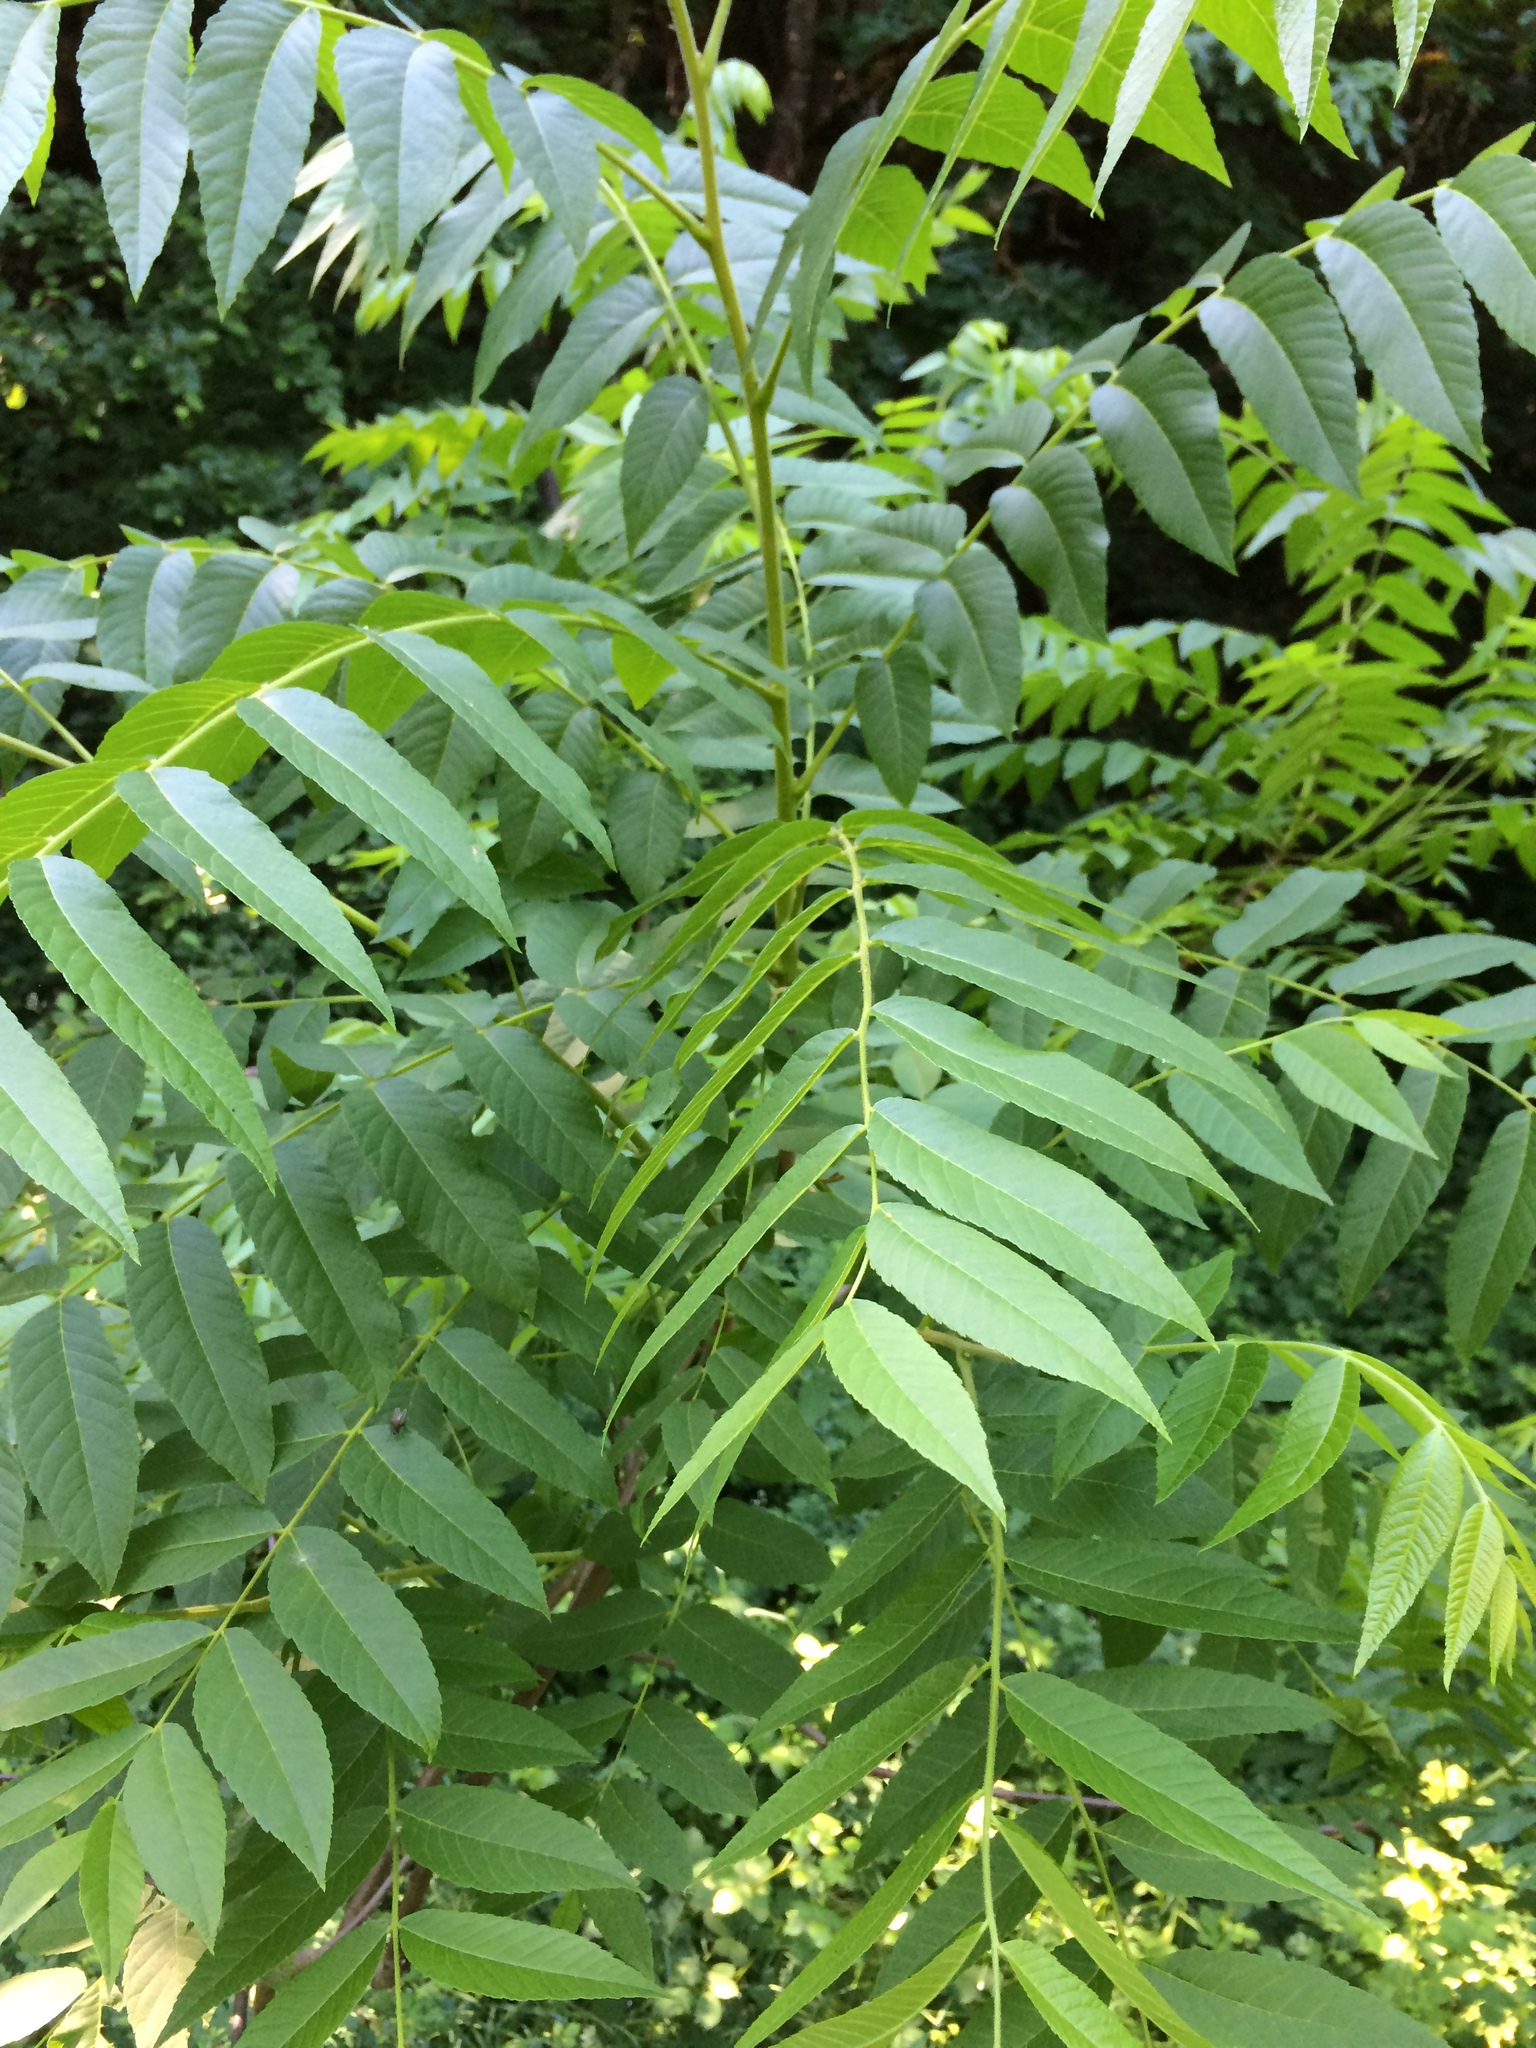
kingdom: Plantae
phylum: Tracheophyta
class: Magnoliopsida
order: Fagales
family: Juglandaceae
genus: Juglans
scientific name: Juglans nigra
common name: Black walnut
